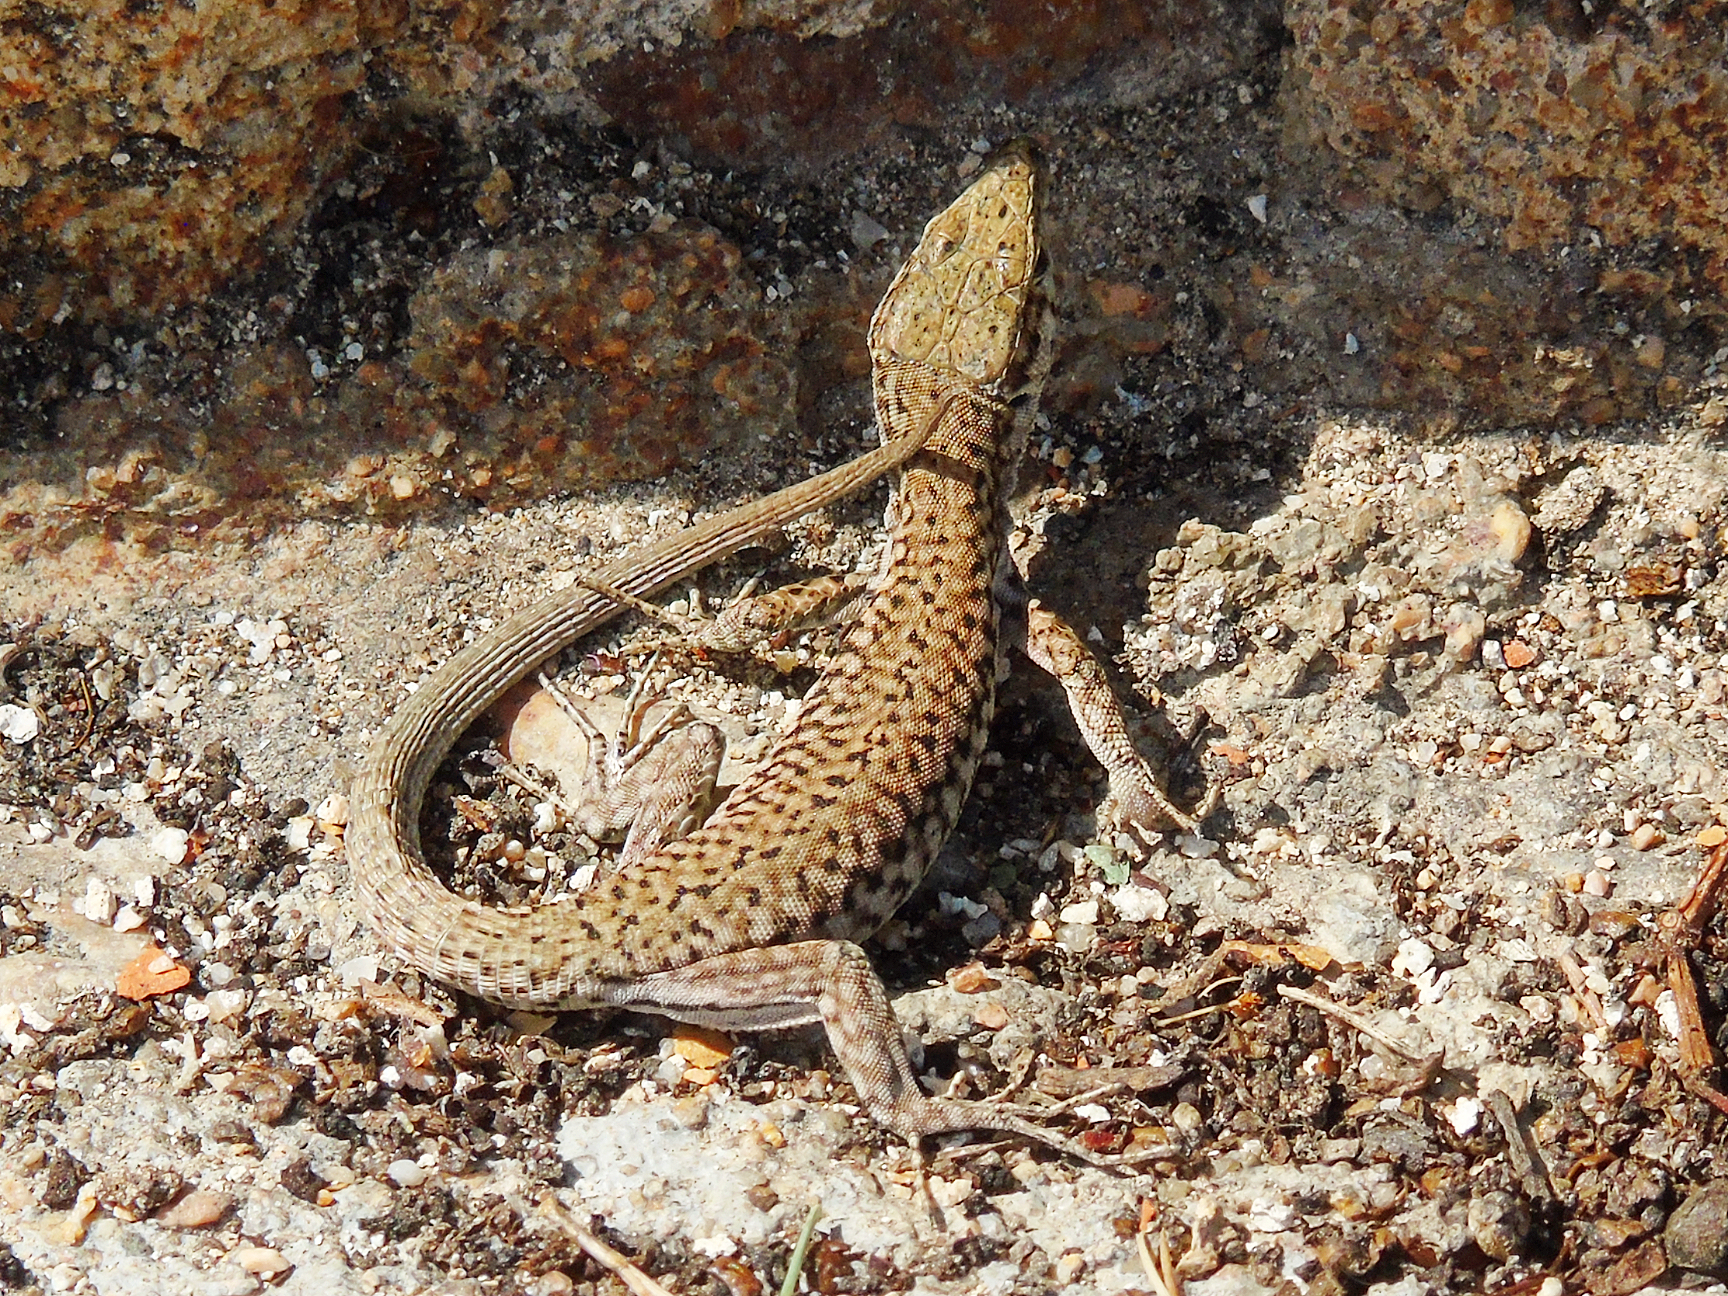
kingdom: Animalia
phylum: Chordata
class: Squamata
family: Lacertidae
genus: Podarcis
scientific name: Podarcis liolepis
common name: Catalonian wall lizard
